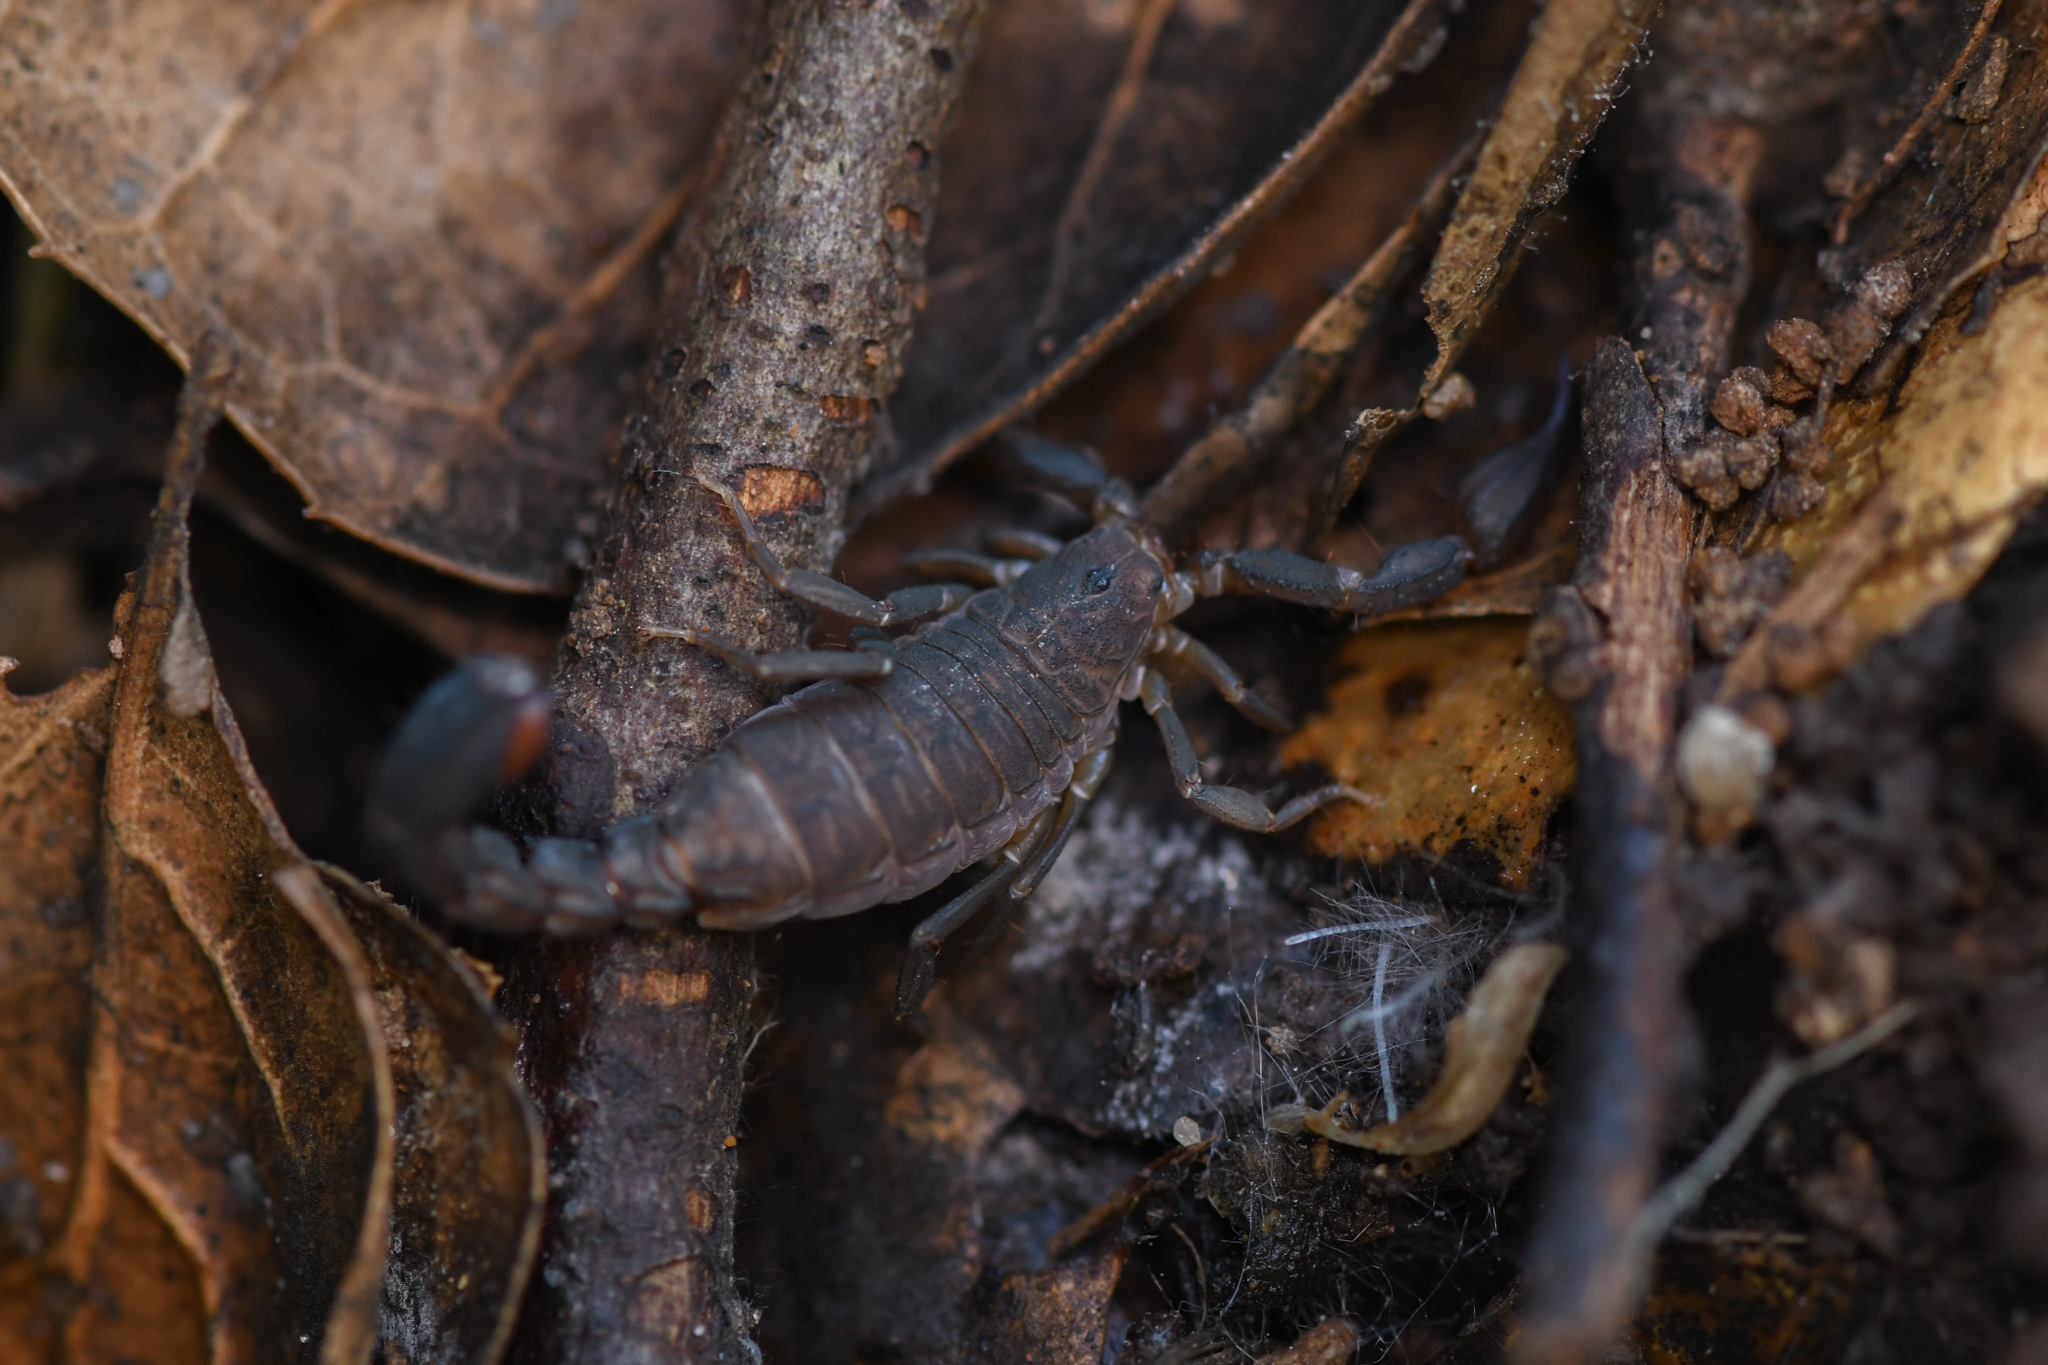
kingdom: Animalia
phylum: Arthropoda
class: Arachnida
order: Scorpiones
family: Vaejovidae
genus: Catalinia
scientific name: Catalinia thompsoni
